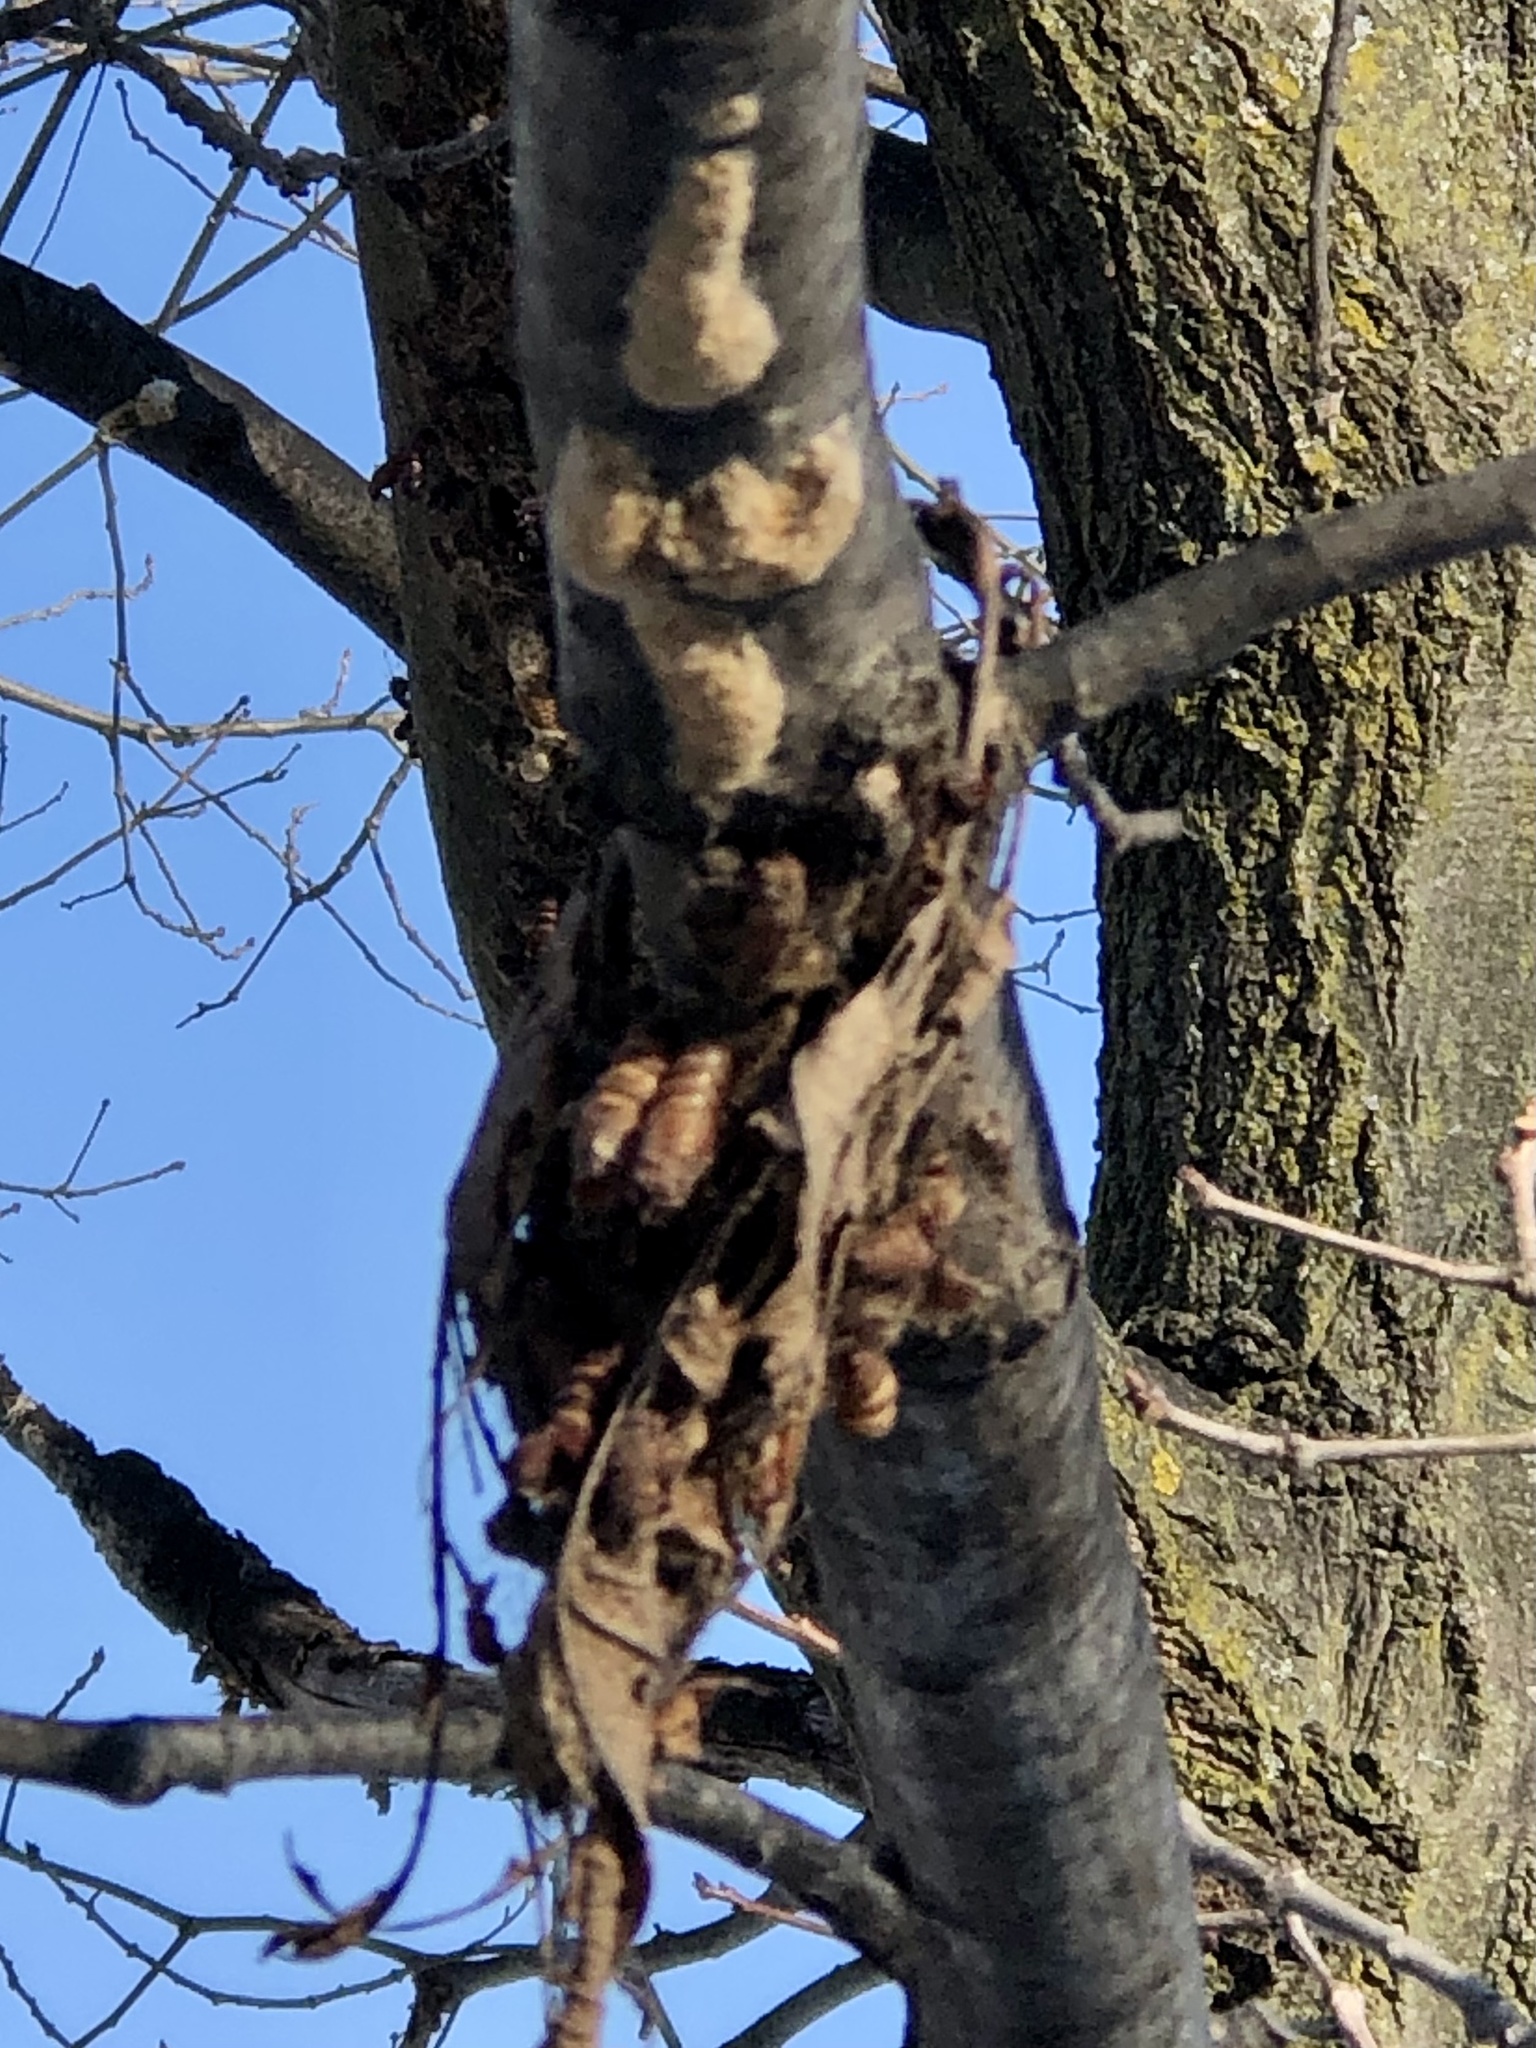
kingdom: Animalia
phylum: Arthropoda
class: Insecta
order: Lepidoptera
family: Erebidae
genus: Lymantria
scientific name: Lymantria dispar
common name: Gypsy moth
